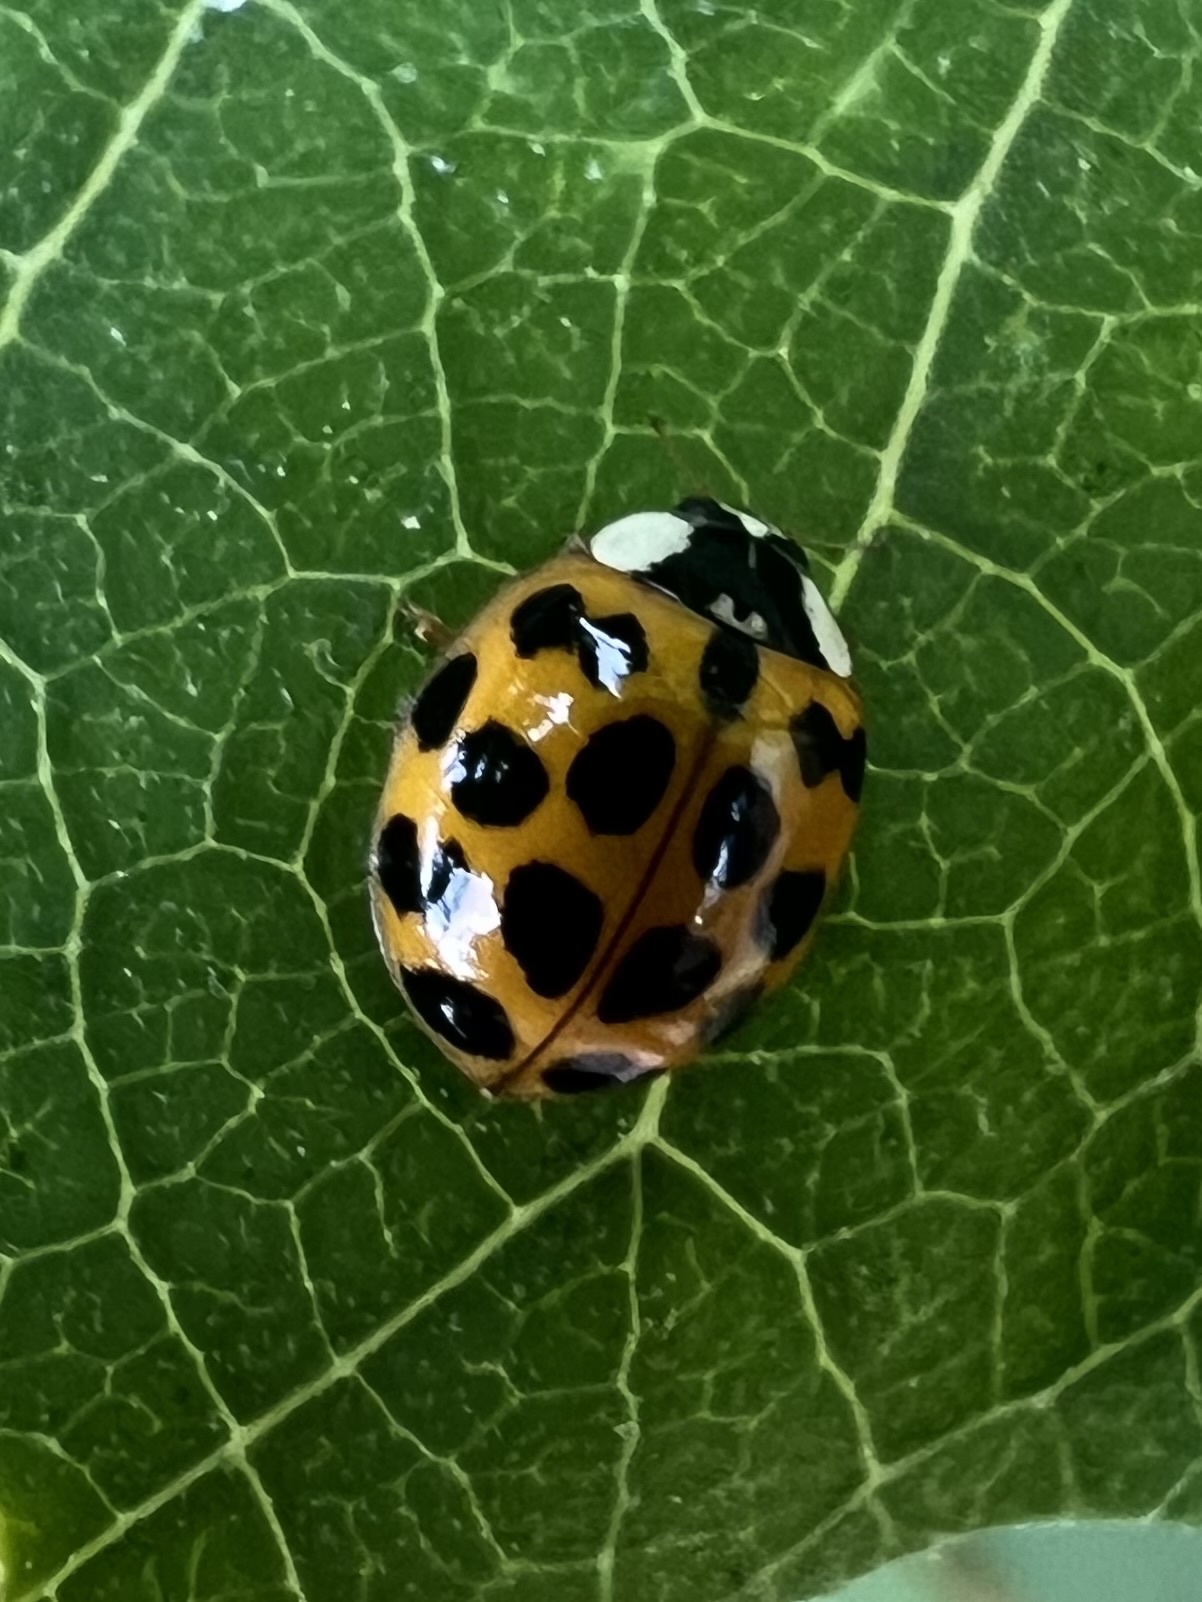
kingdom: Animalia
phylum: Arthropoda
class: Insecta
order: Coleoptera
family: Coccinellidae
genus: Harmonia
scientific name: Harmonia axyridis
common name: Harlequin ladybird
